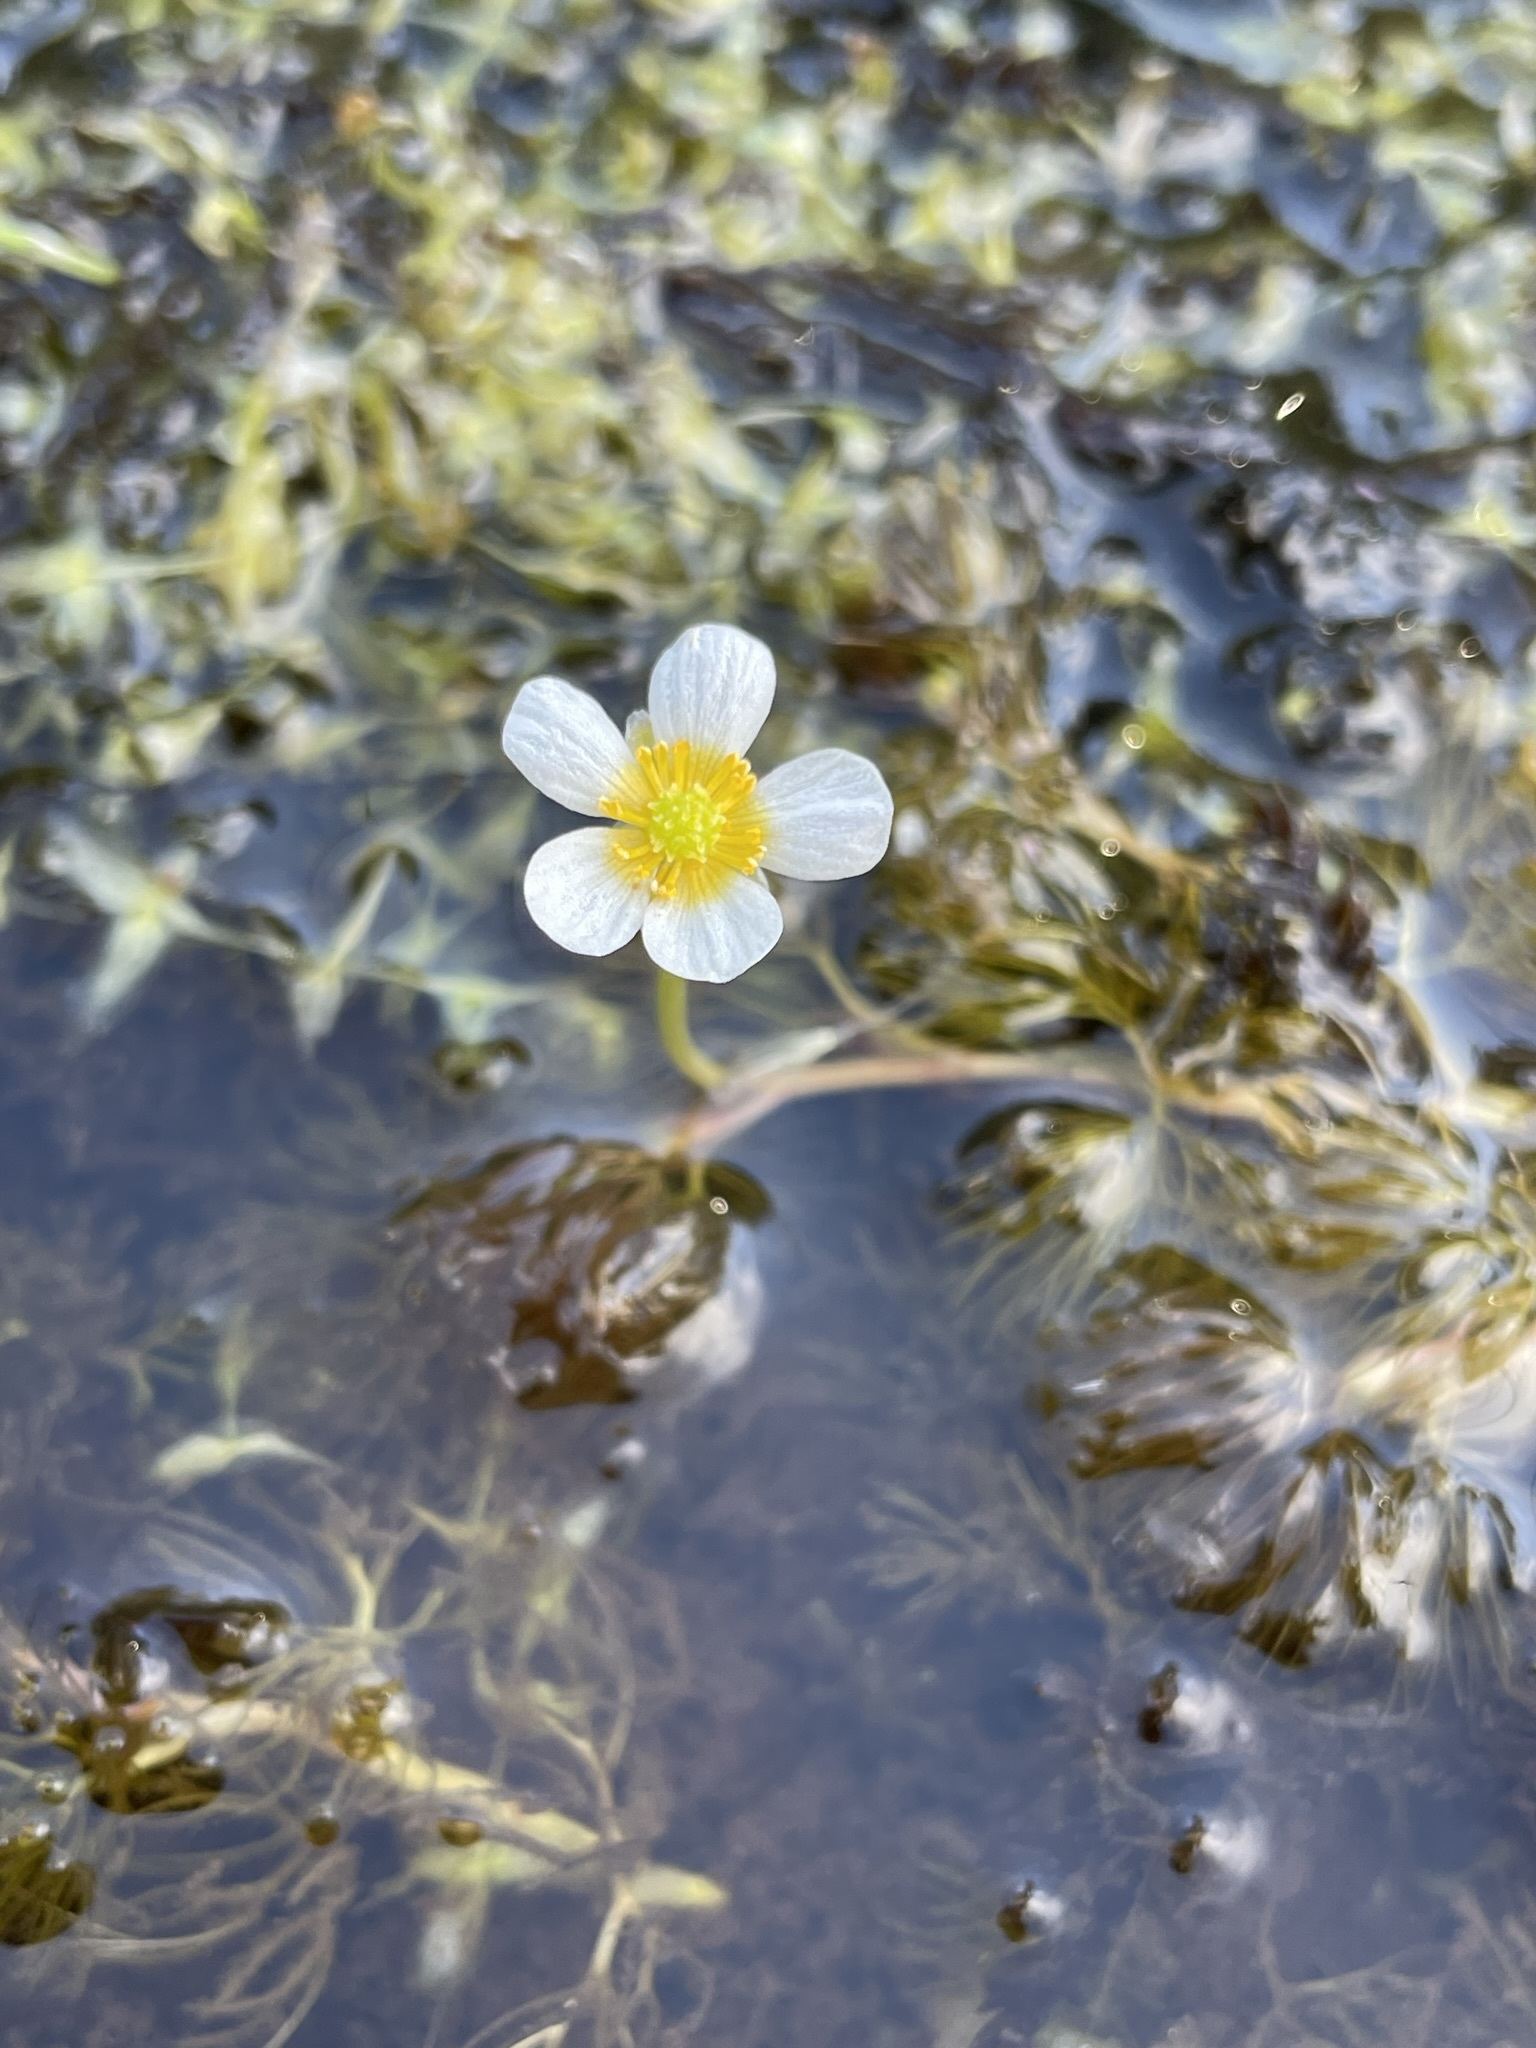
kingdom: Plantae
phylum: Tracheophyta
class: Magnoliopsida
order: Ranunculales
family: Ranunculaceae
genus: Ranunculus
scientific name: Ranunculus aquatilis
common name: Common water-crowfoot
